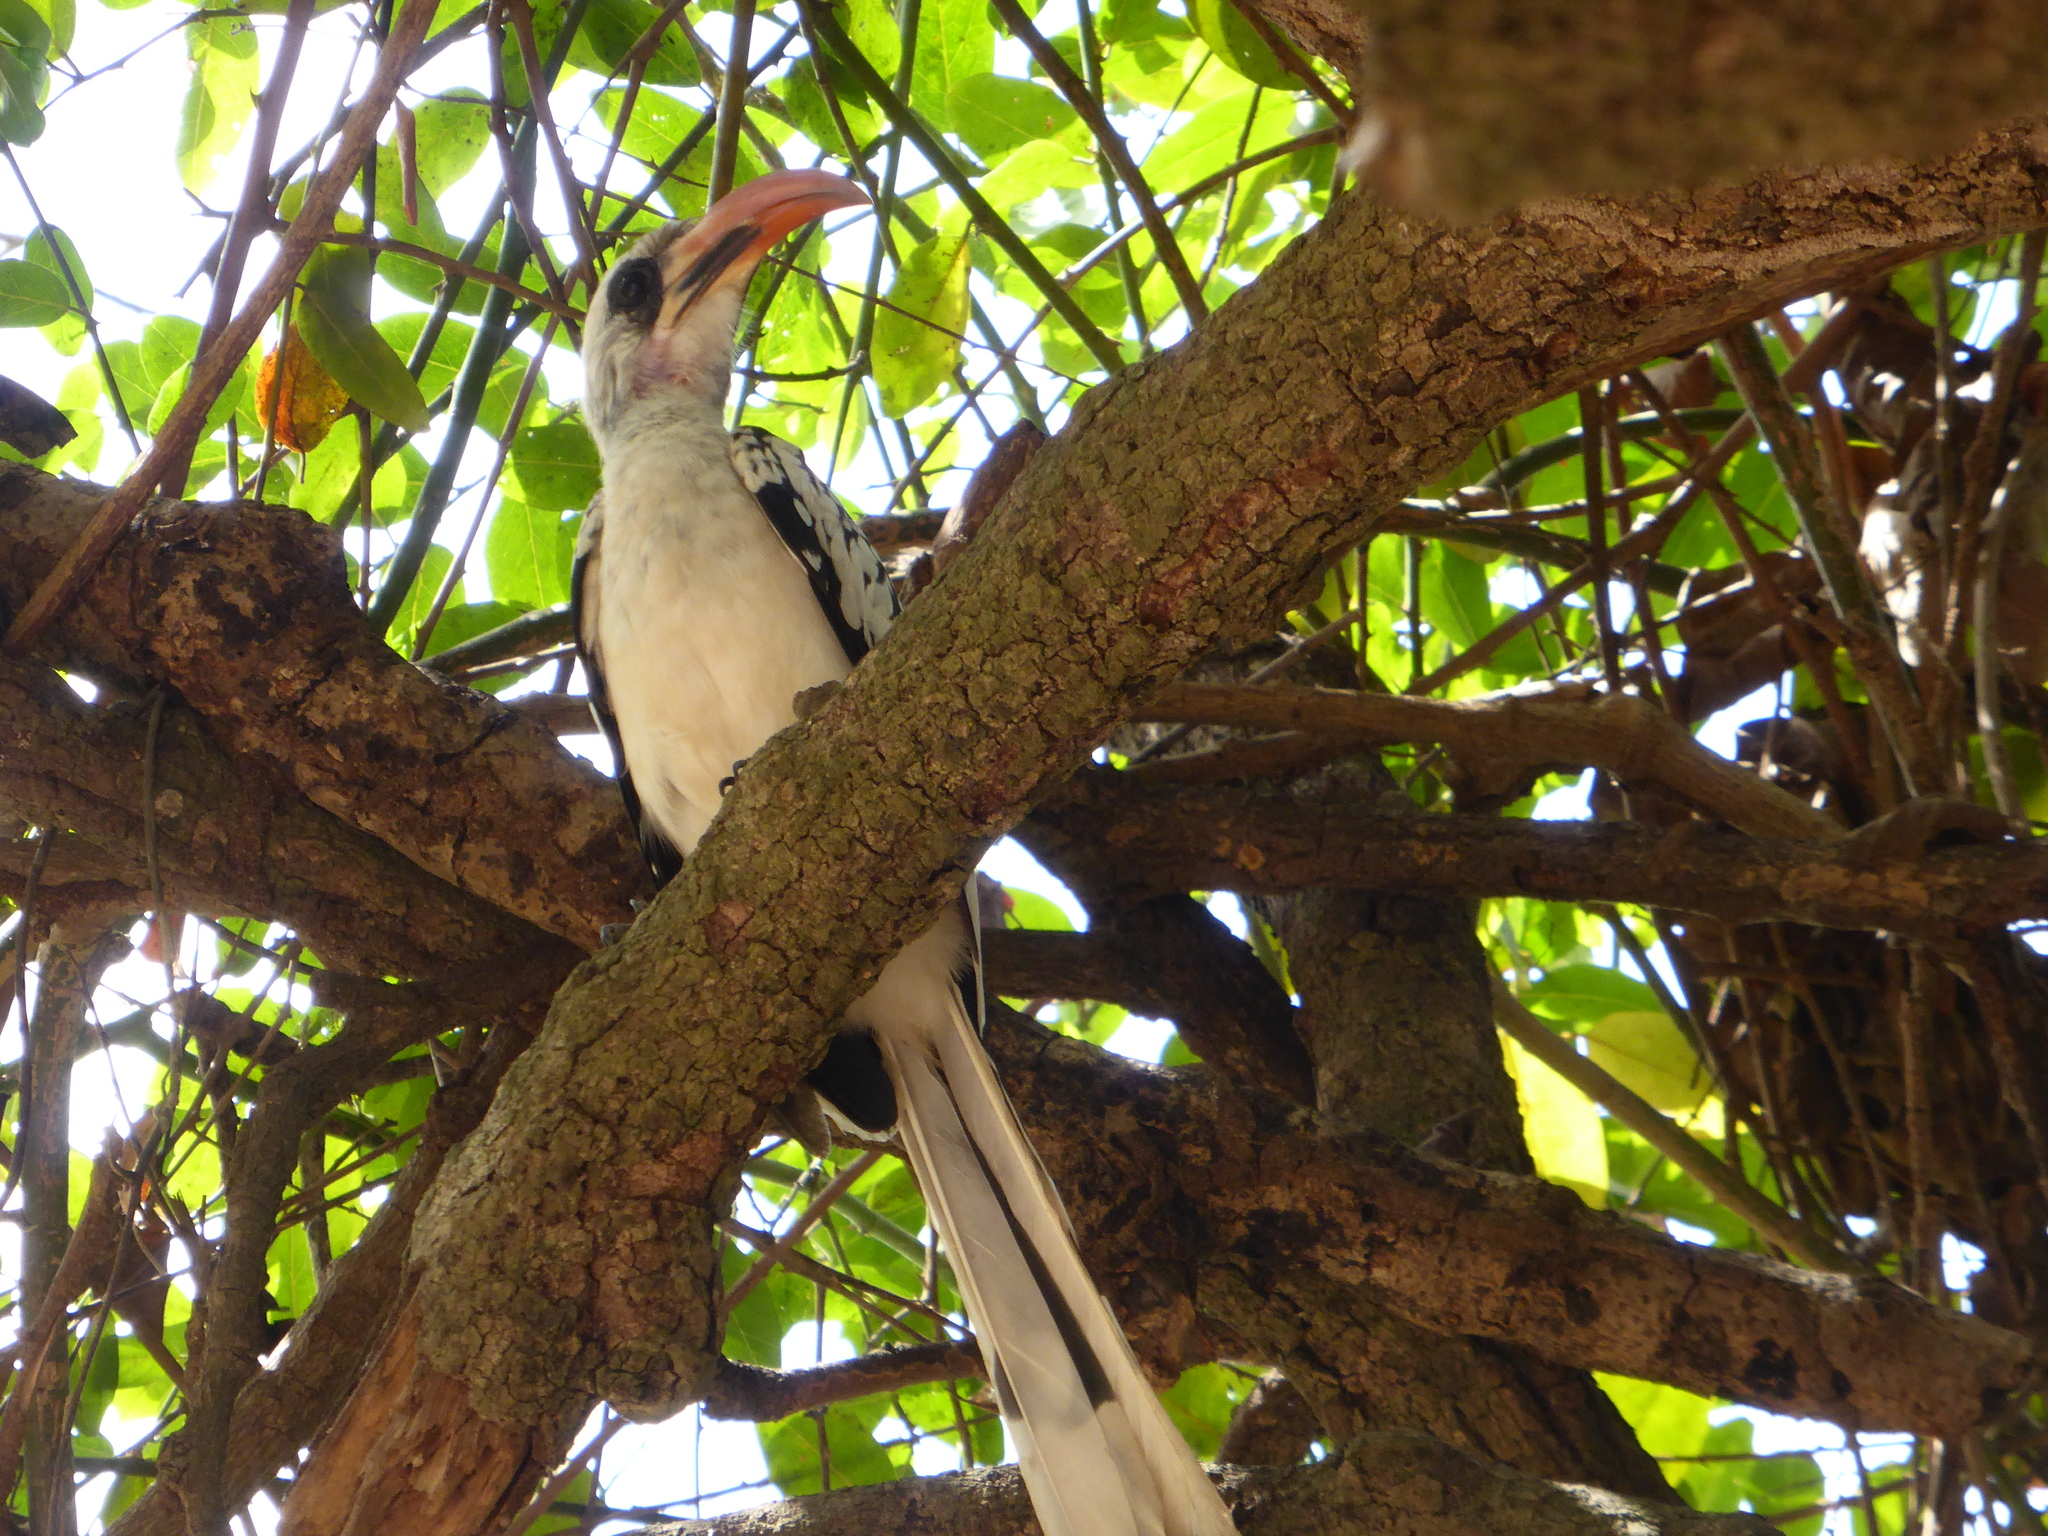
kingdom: Animalia
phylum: Chordata
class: Aves
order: Bucerotiformes
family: Bucerotidae
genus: Tockus
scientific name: Tockus kempi
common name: Western red-billed hornbill
